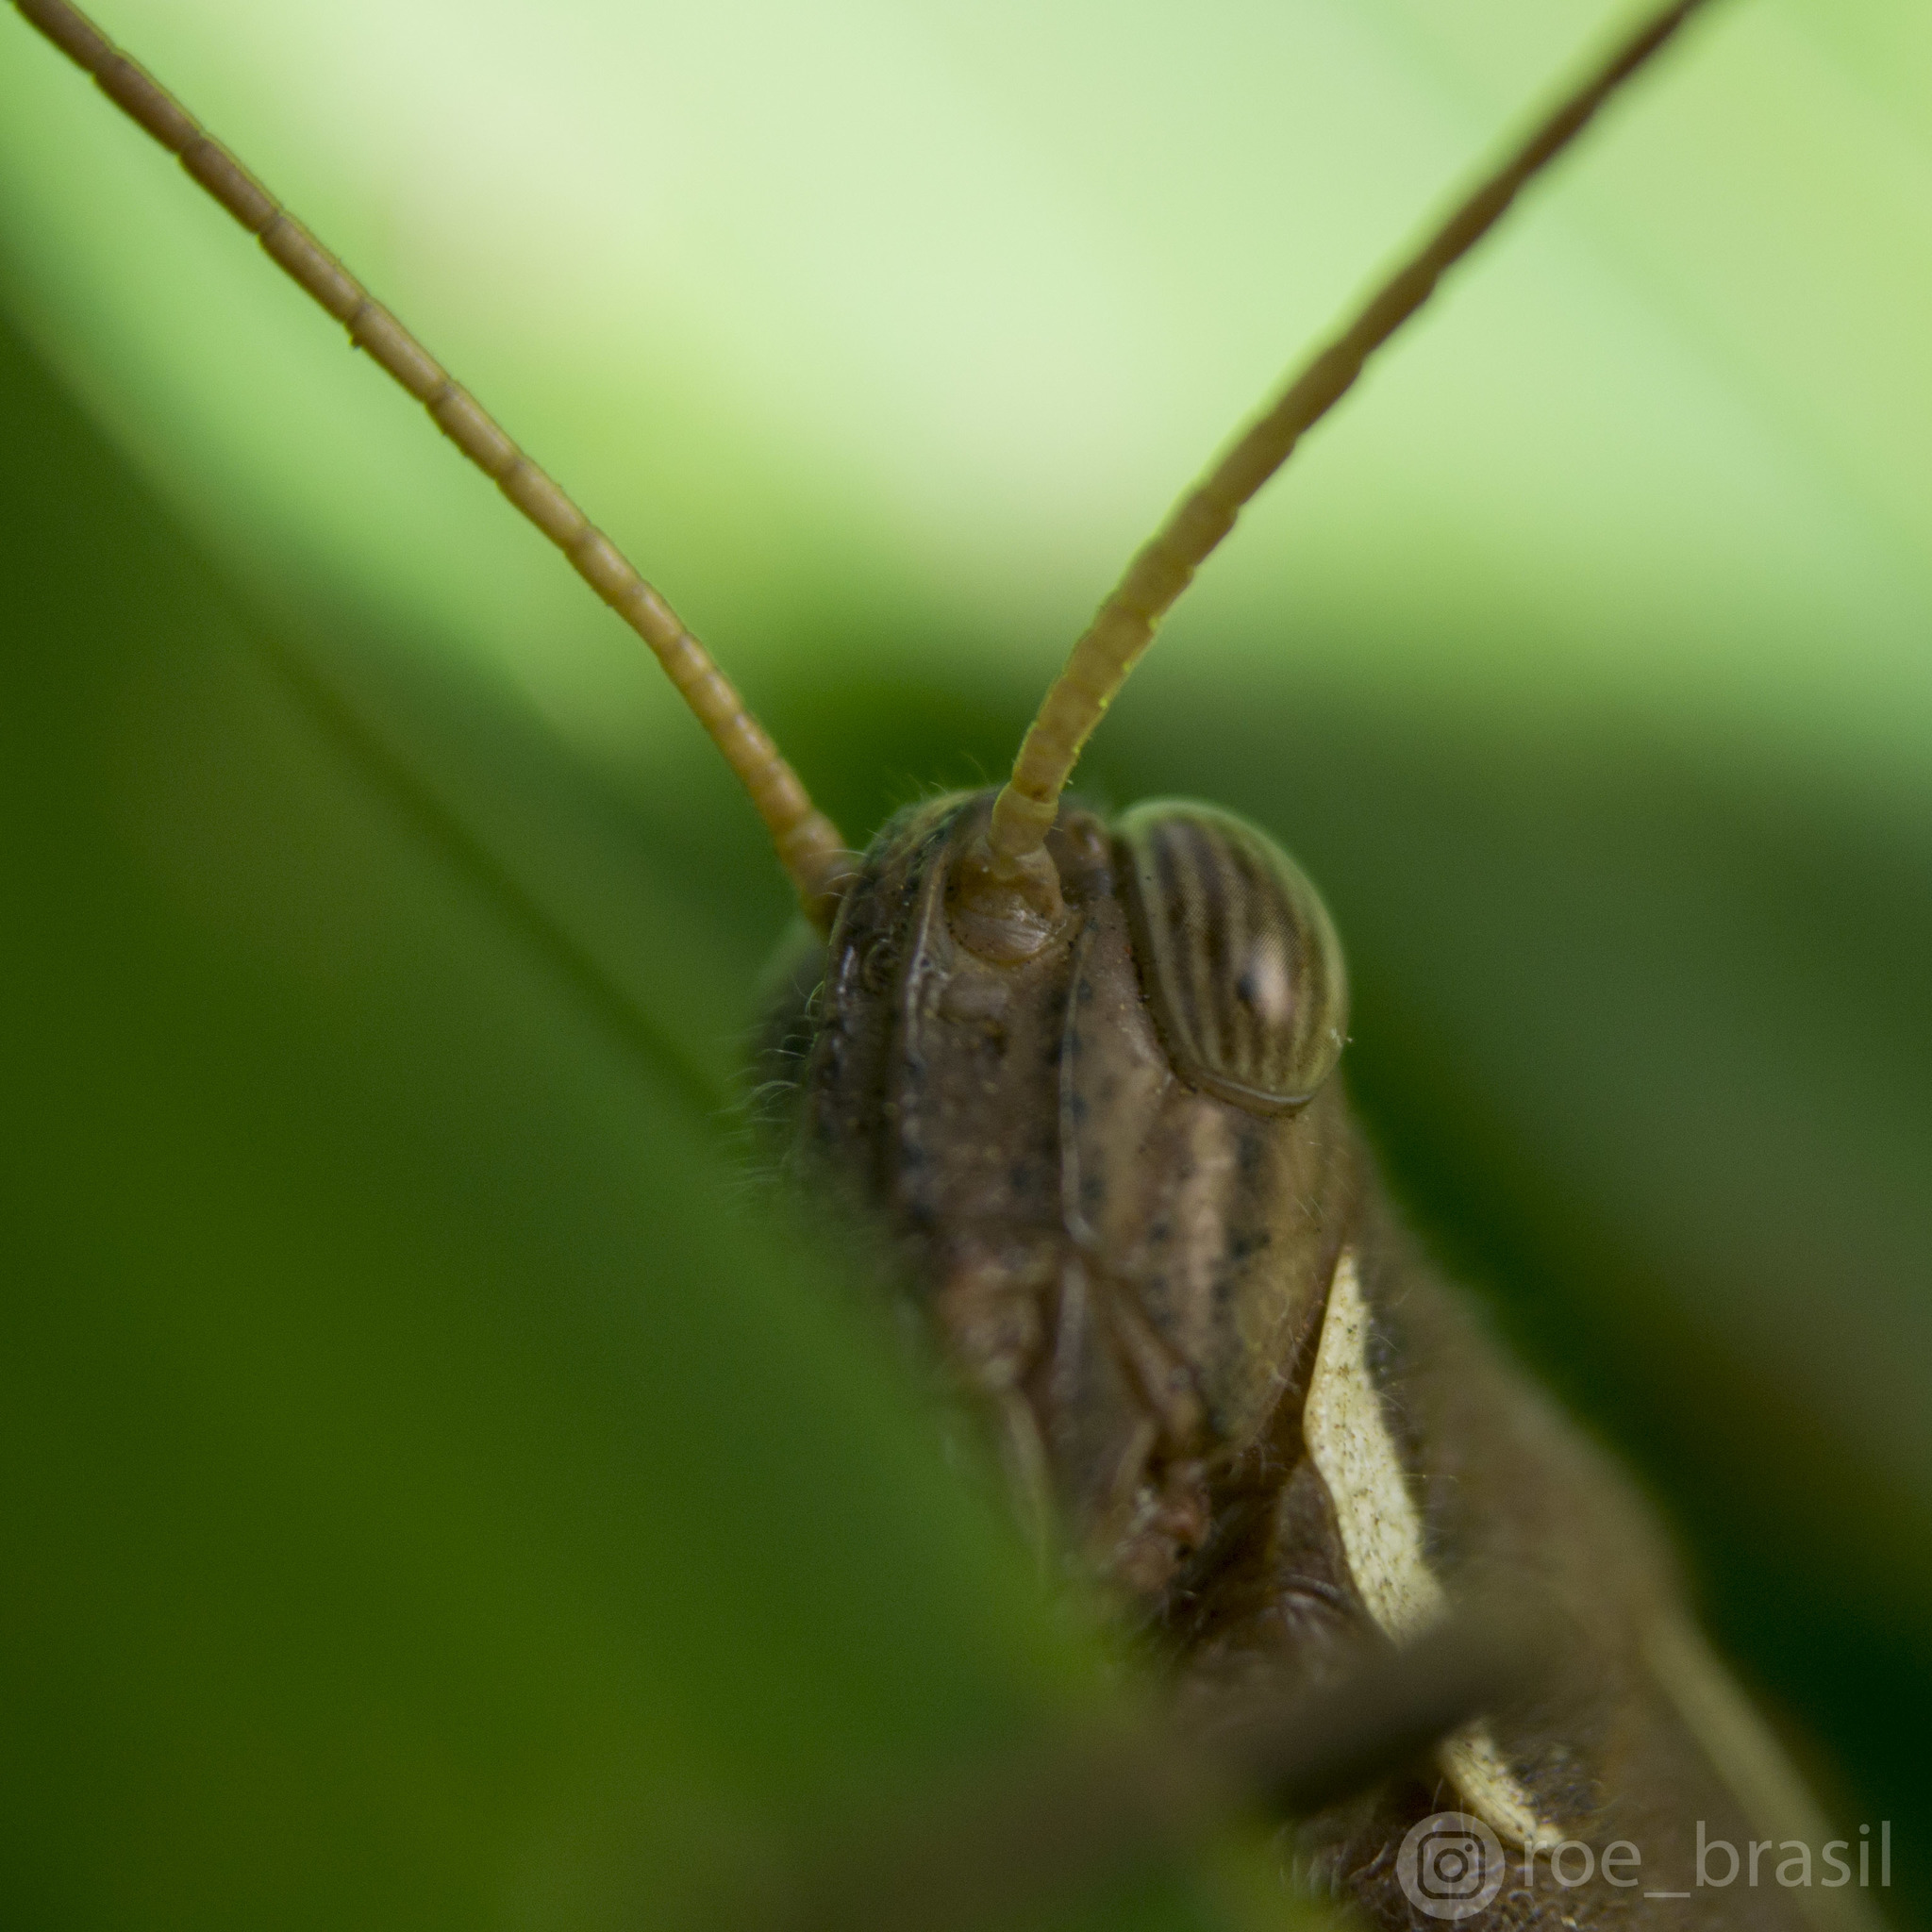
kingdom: Animalia
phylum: Arthropoda
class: Insecta
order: Orthoptera
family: Acrididae
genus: Schistocerca
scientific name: Schistocerca flavofasciata
